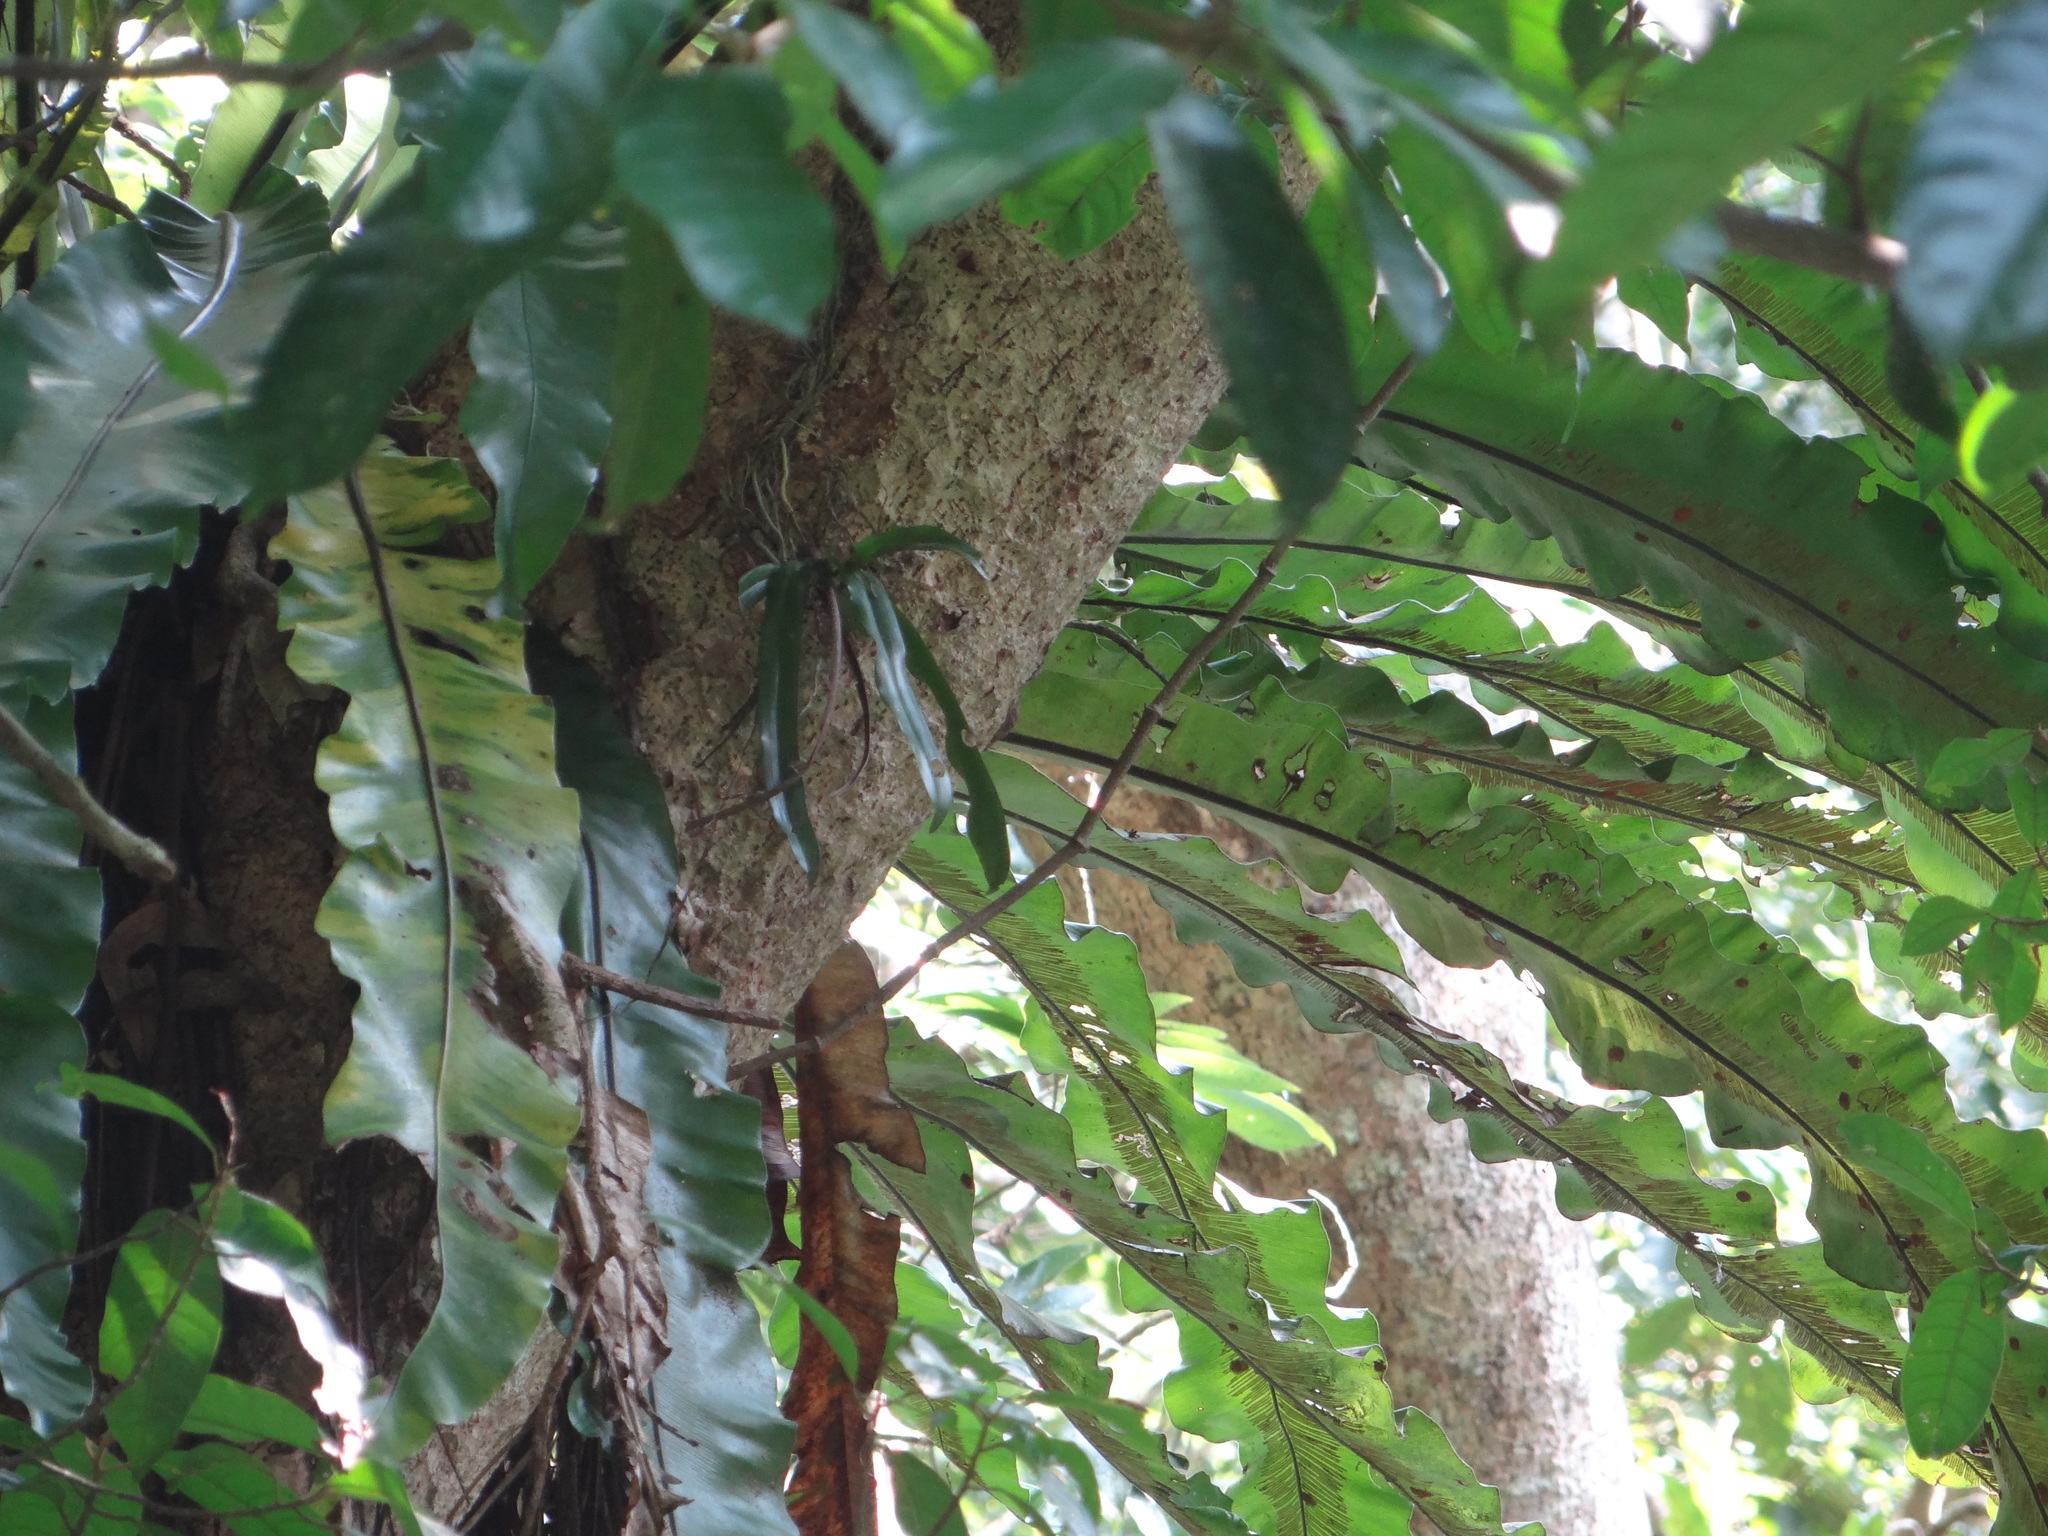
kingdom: Plantae
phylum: Tracheophyta
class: Liliopsida
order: Asparagales
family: Orchidaceae
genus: Pomatocalpa
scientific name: Pomatocalpa undulatum
